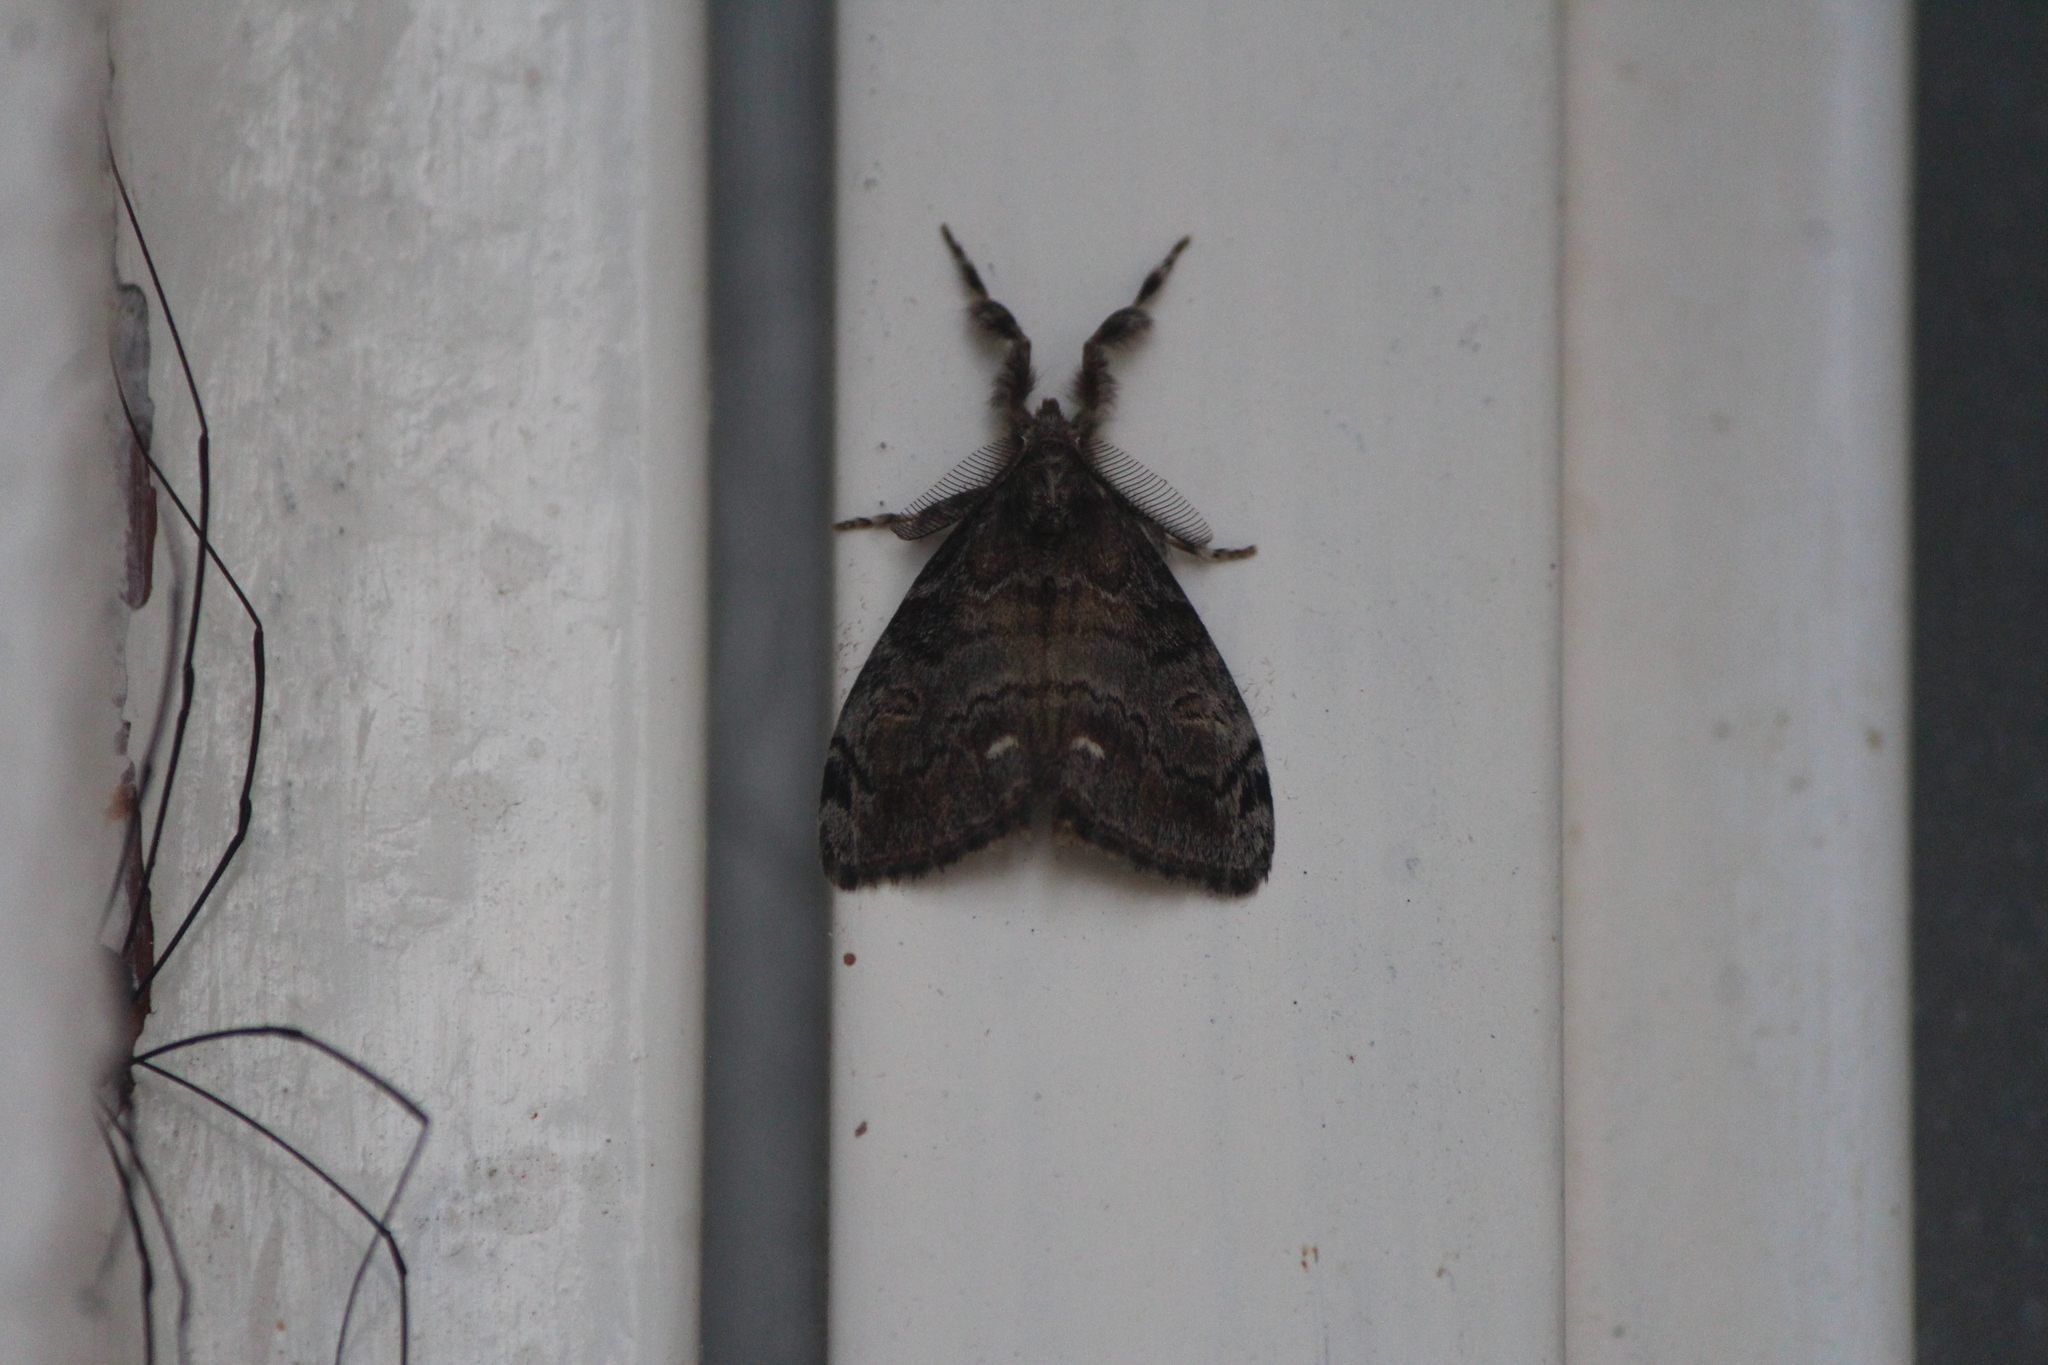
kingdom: Animalia
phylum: Arthropoda
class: Insecta
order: Lepidoptera
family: Erebidae
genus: Orgyia
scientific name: Orgyia leucostigma
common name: White-marked tussock moth
